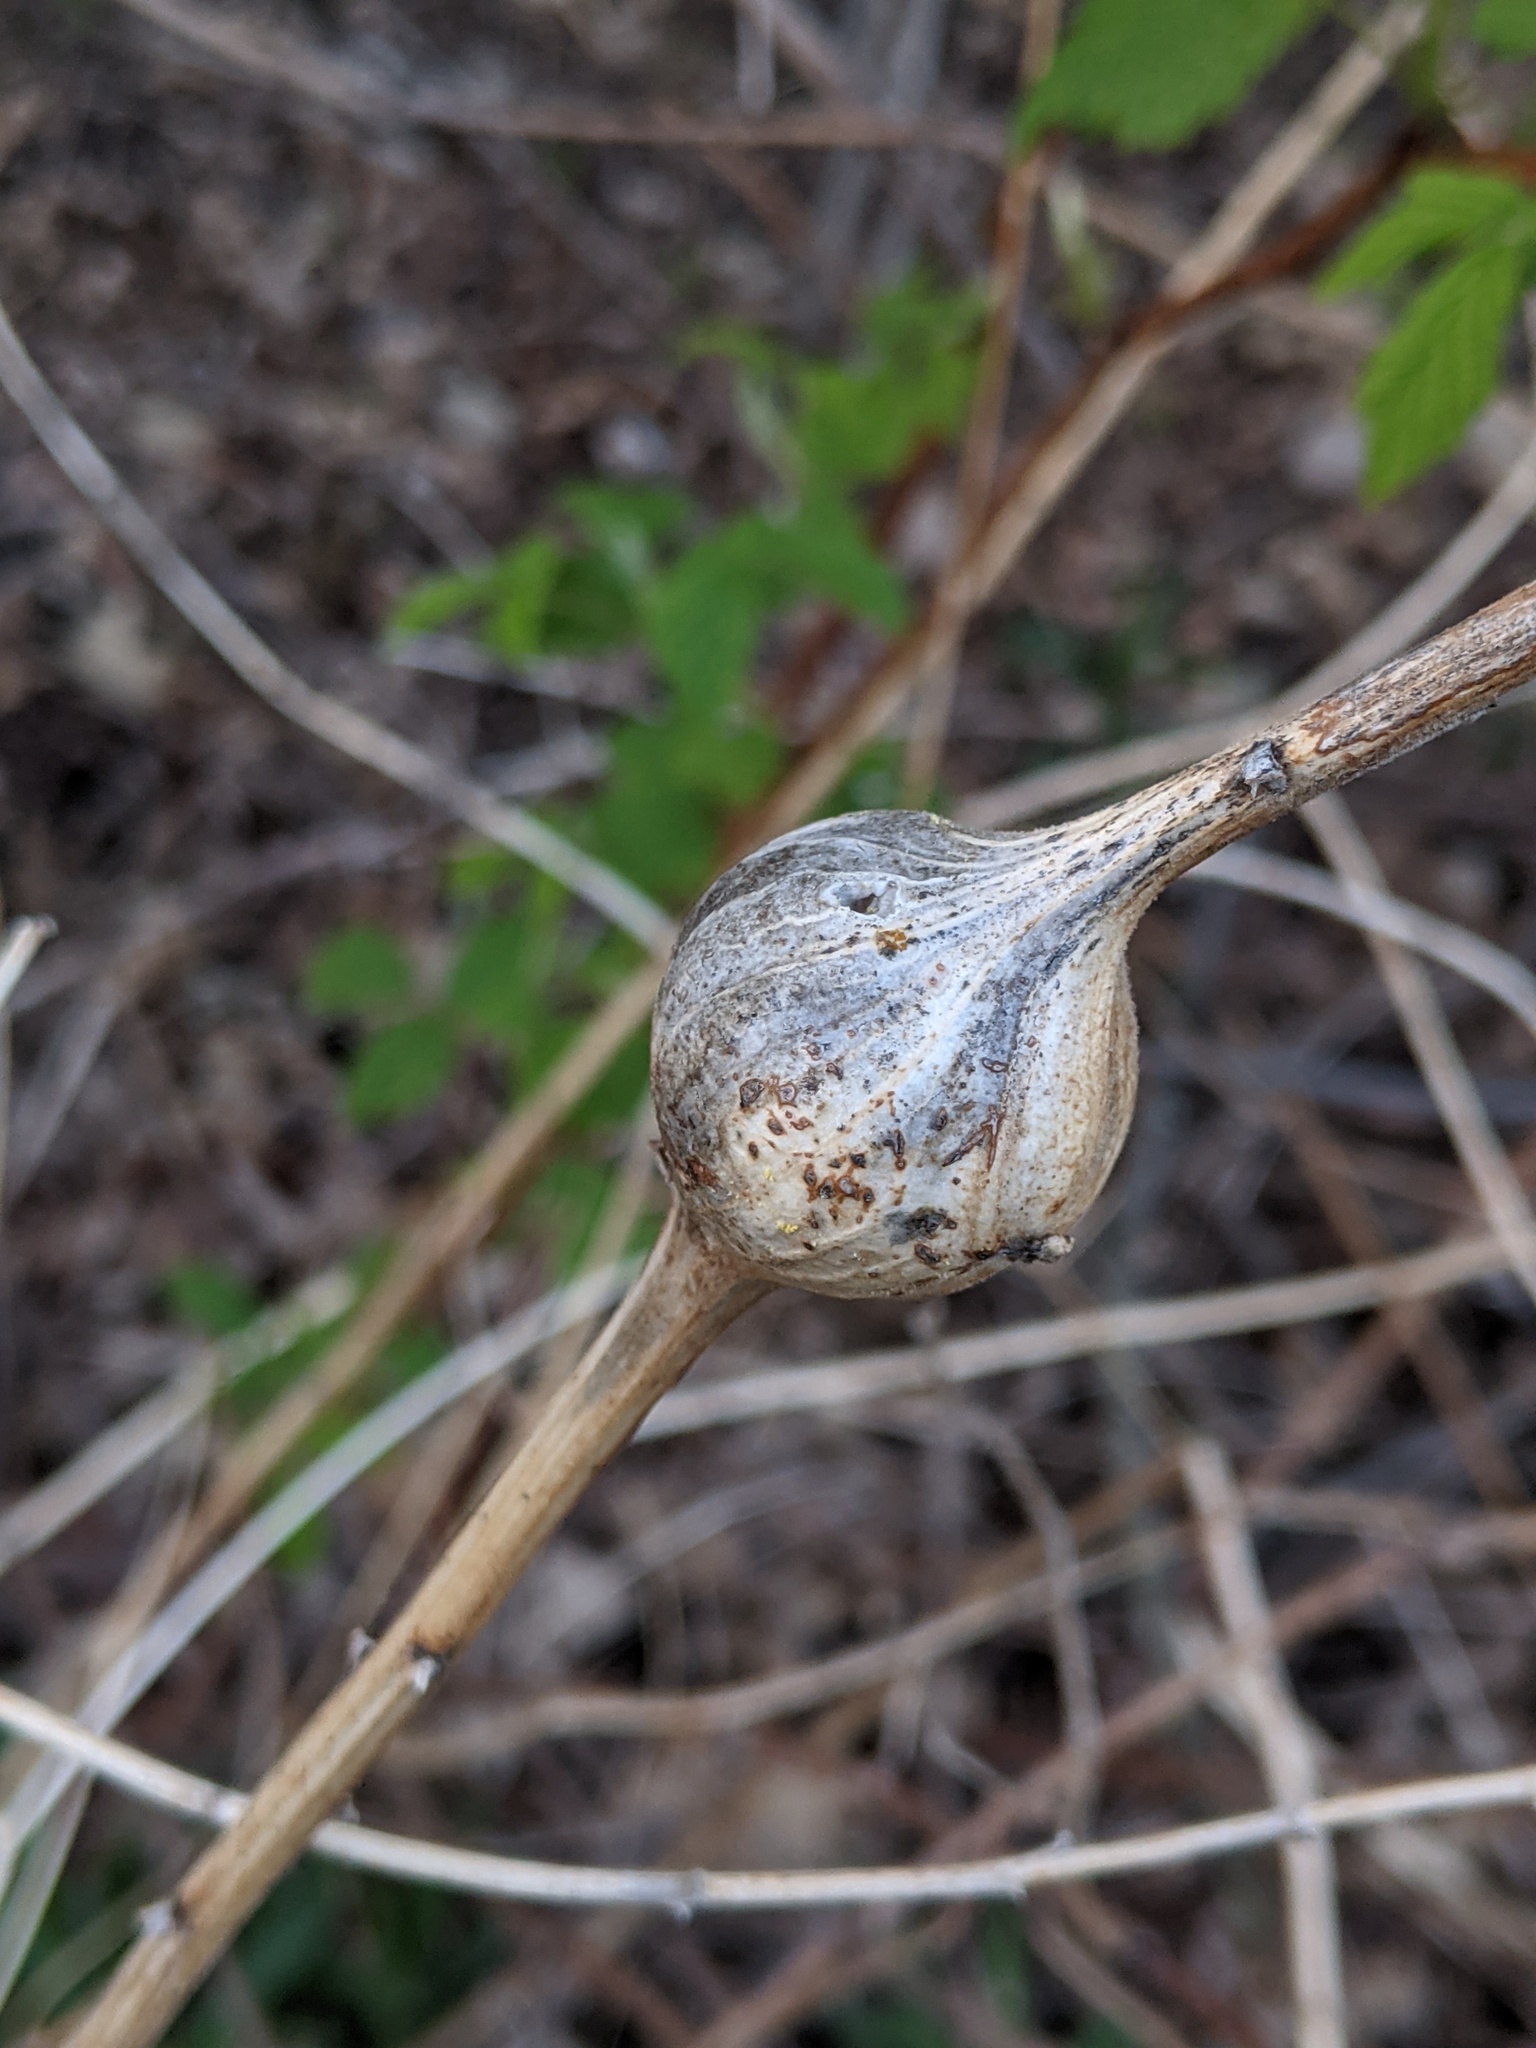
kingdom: Animalia
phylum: Arthropoda
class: Insecta
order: Diptera
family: Tephritidae
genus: Eurosta
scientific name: Eurosta solidaginis
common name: Goldenrod gall fly
